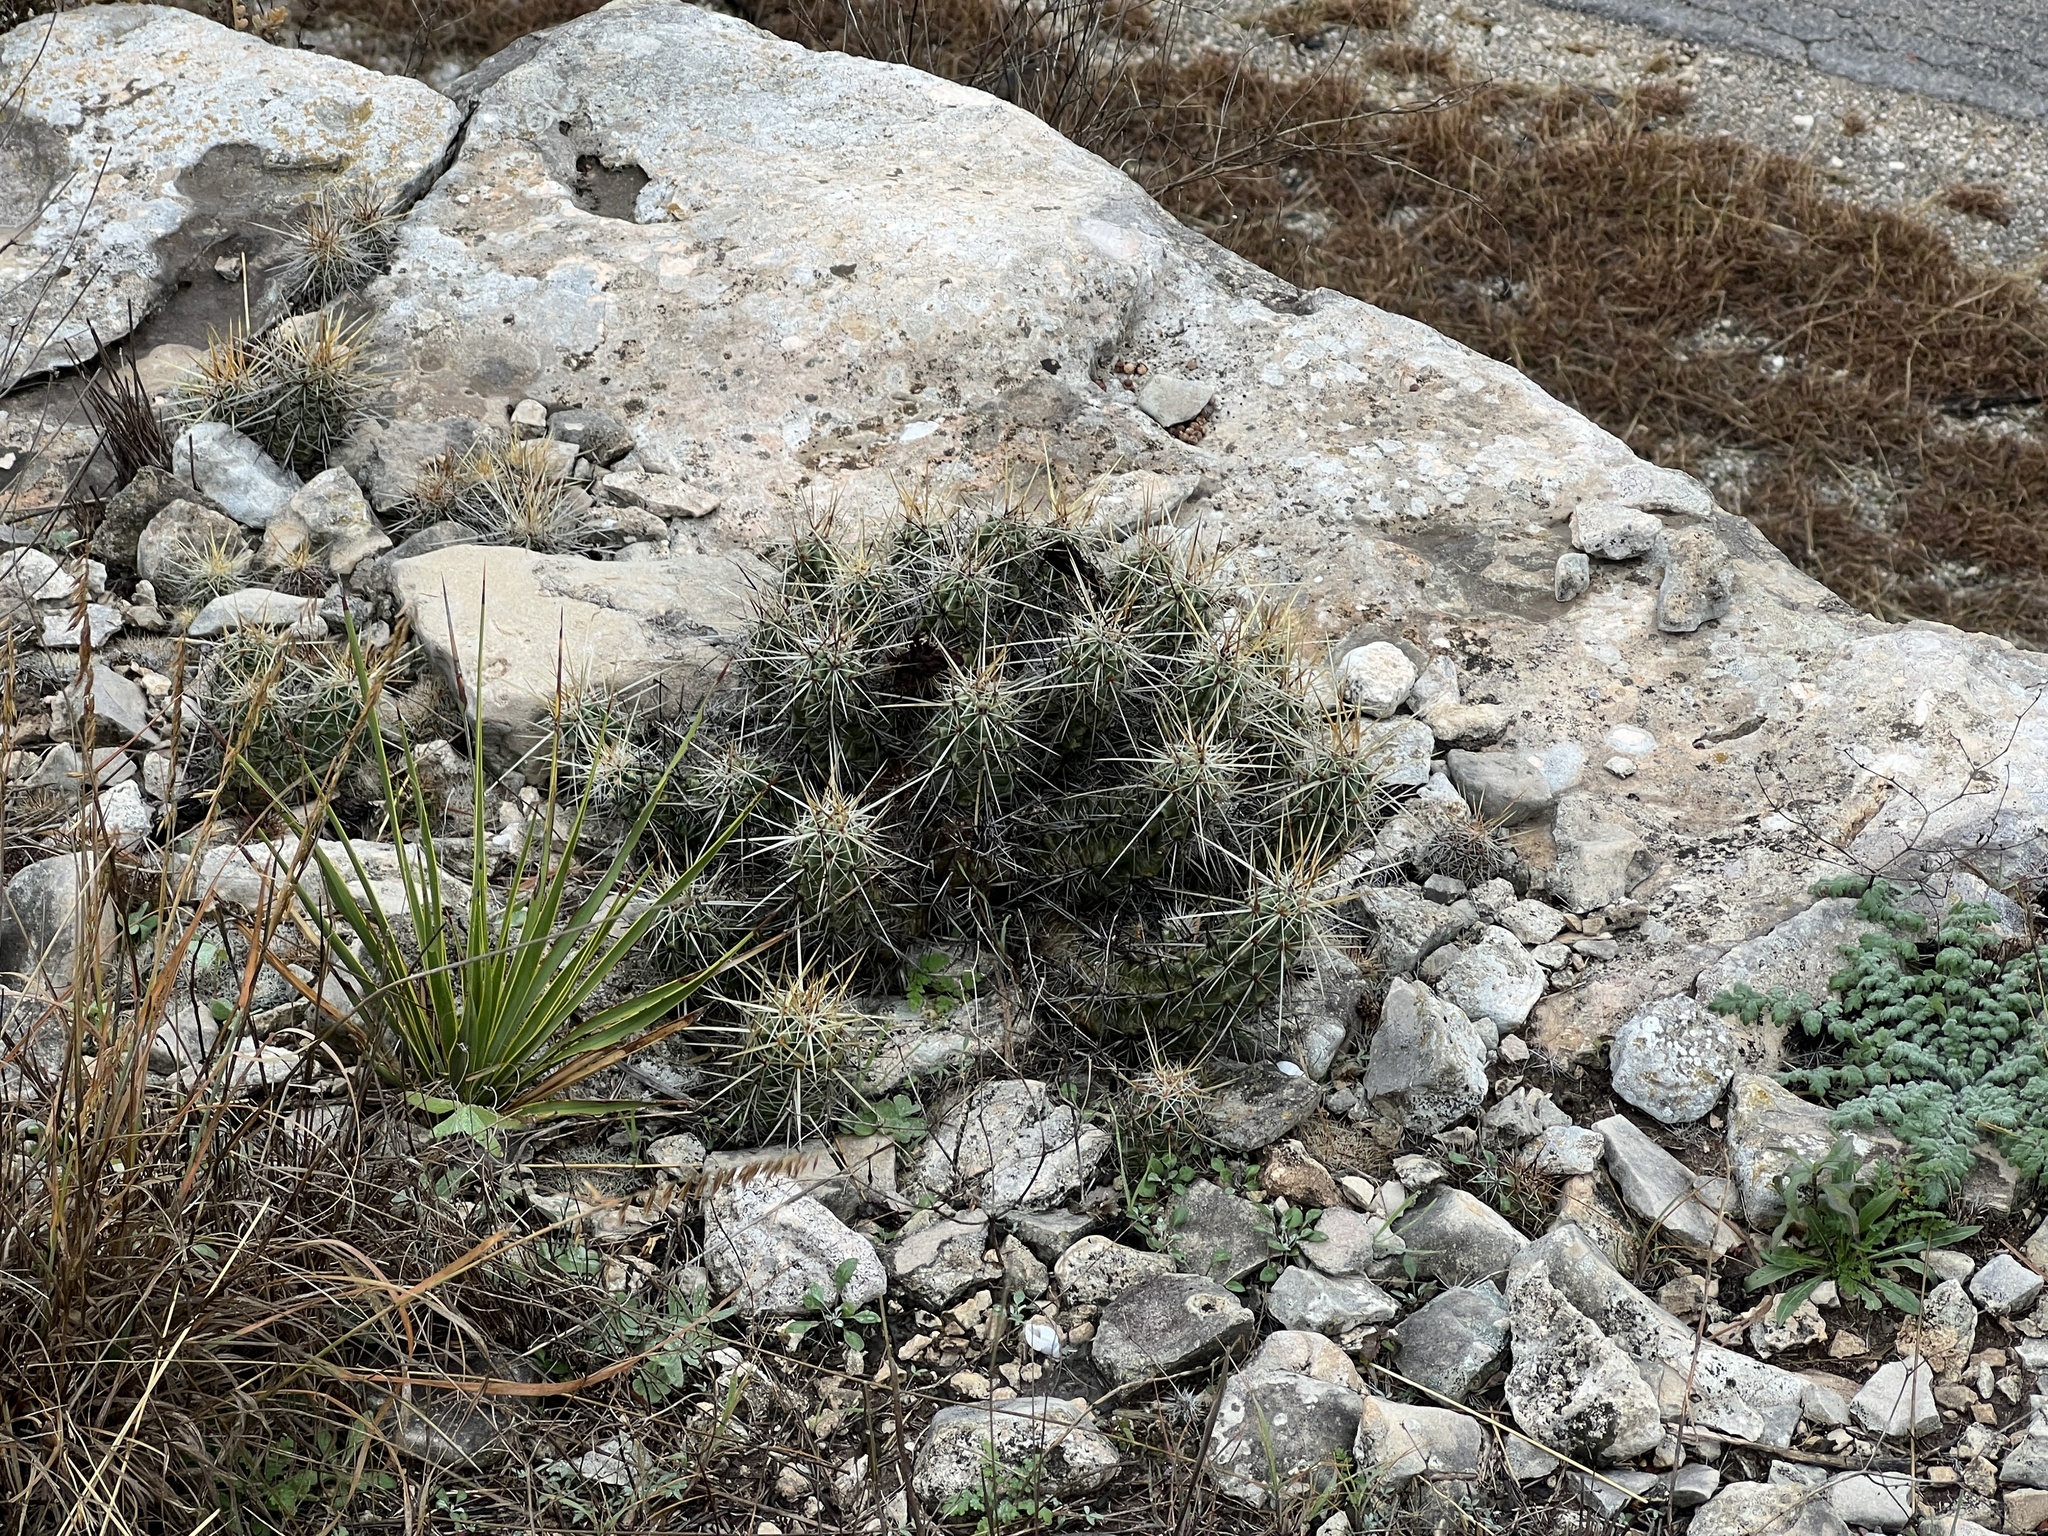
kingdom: Plantae
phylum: Tracheophyta
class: Magnoliopsida
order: Caryophyllales
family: Cactaceae
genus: Echinocereus
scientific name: Echinocereus enneacanthus
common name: Pitaya
